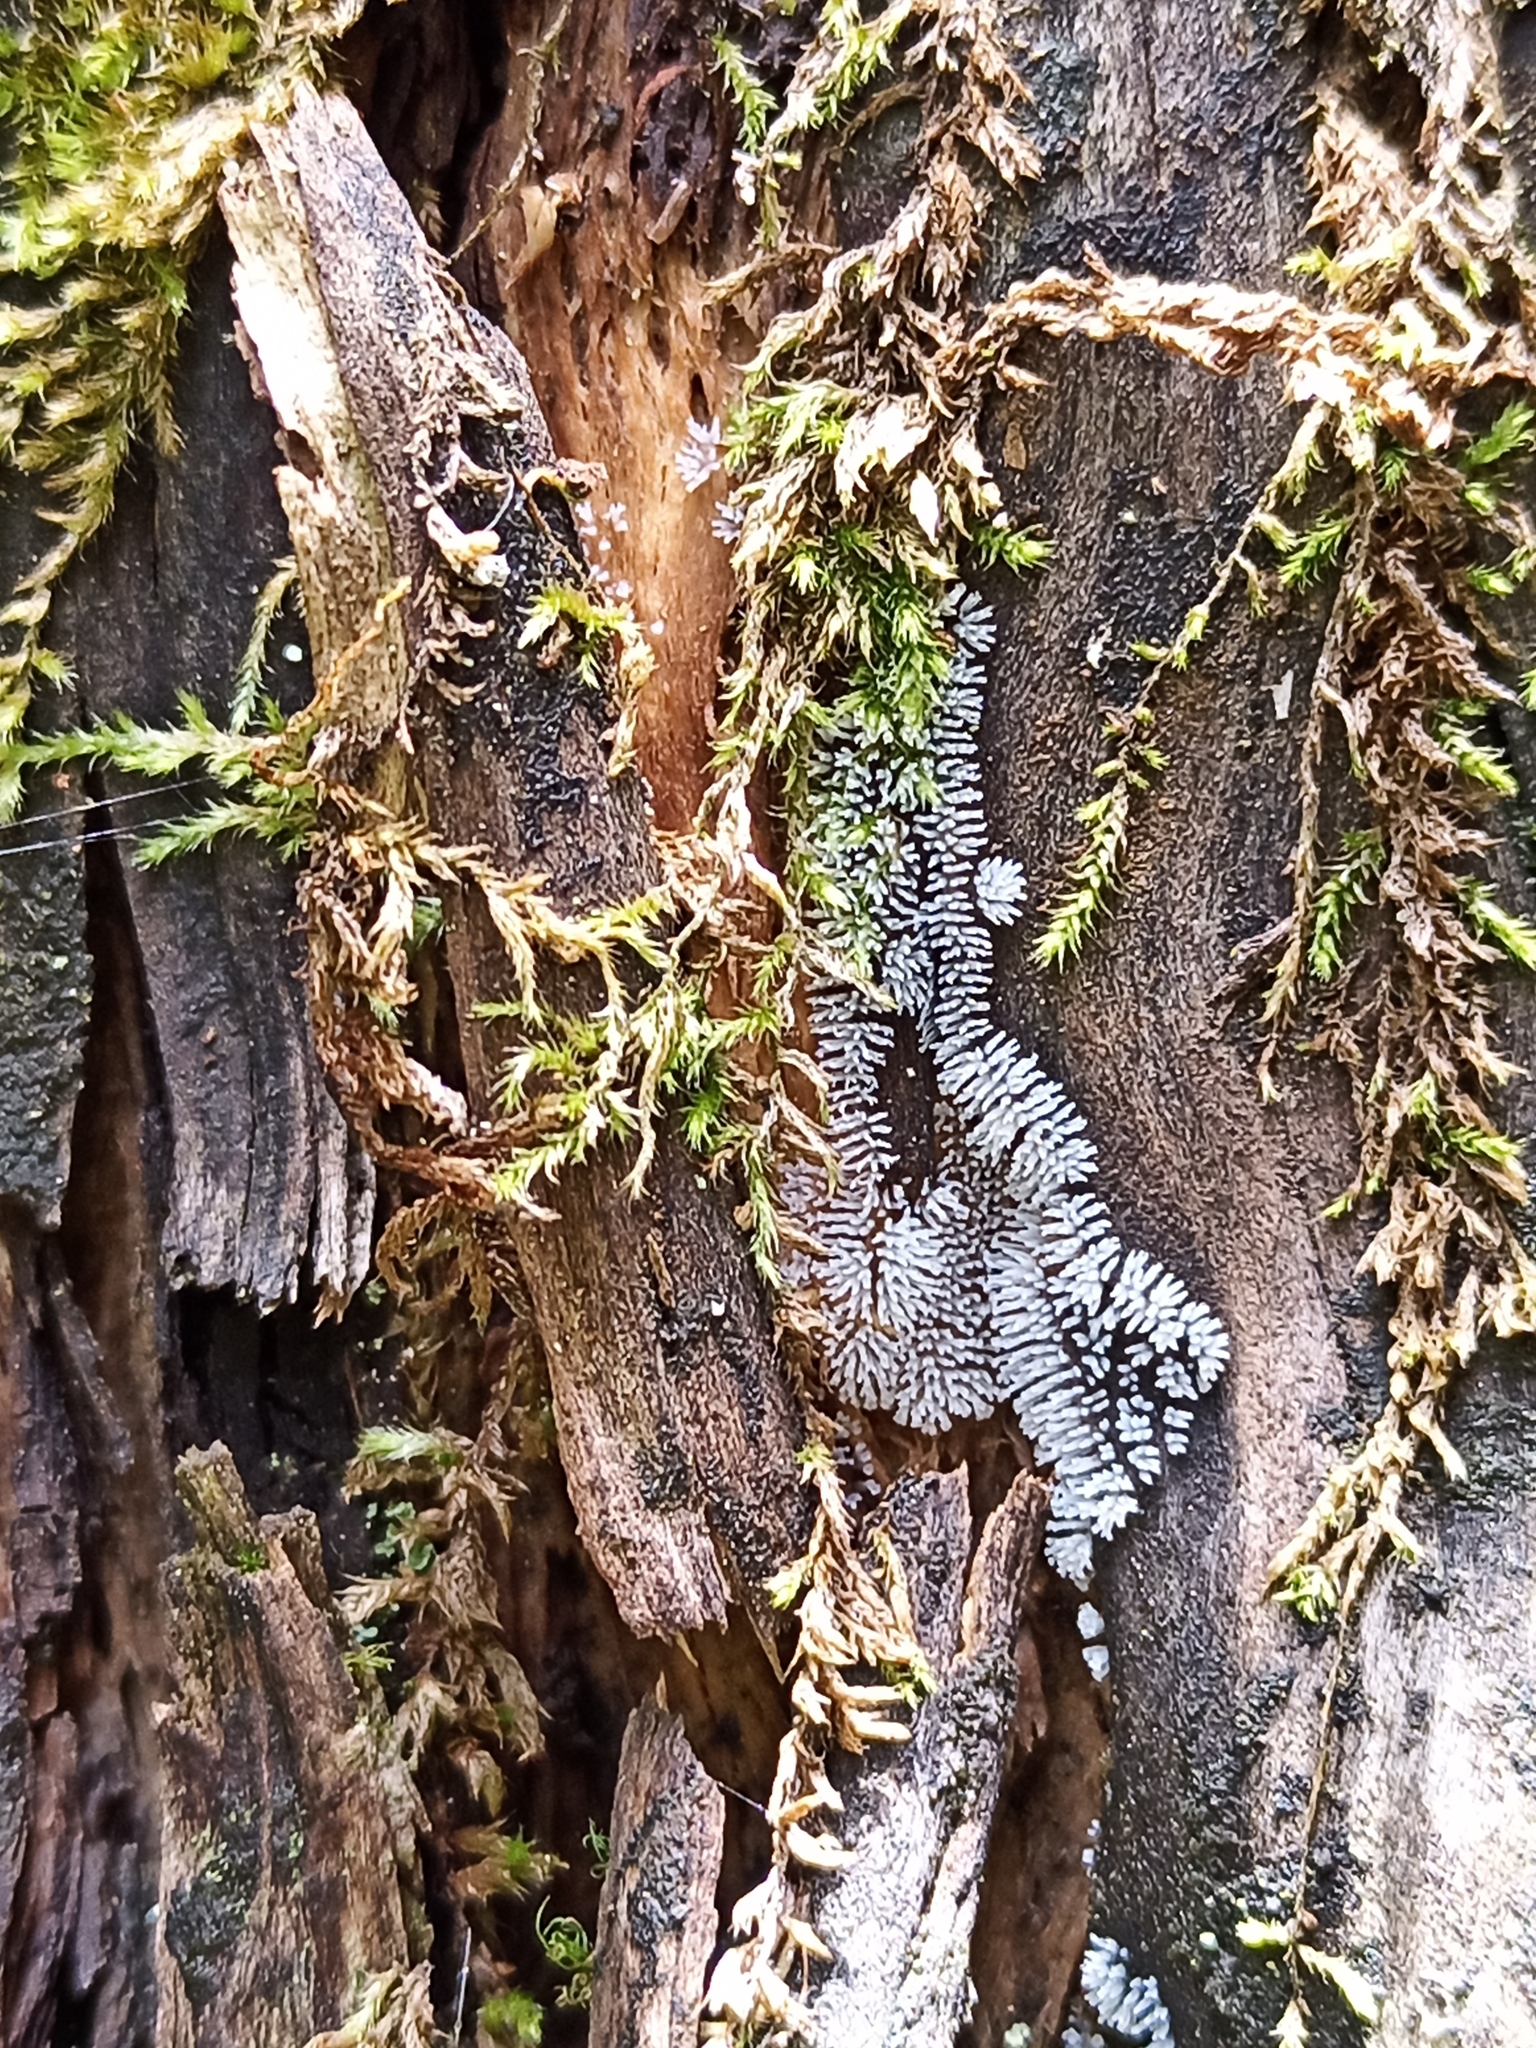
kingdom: Protozoa
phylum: Mycetozoa
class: Protosteliomycetes
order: Ceratiomyxales
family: Ceratiomyxaceae
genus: Ceratiomyxa
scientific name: Ceratiomyxa fruticulosa
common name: Honeycomb coral slime mold
